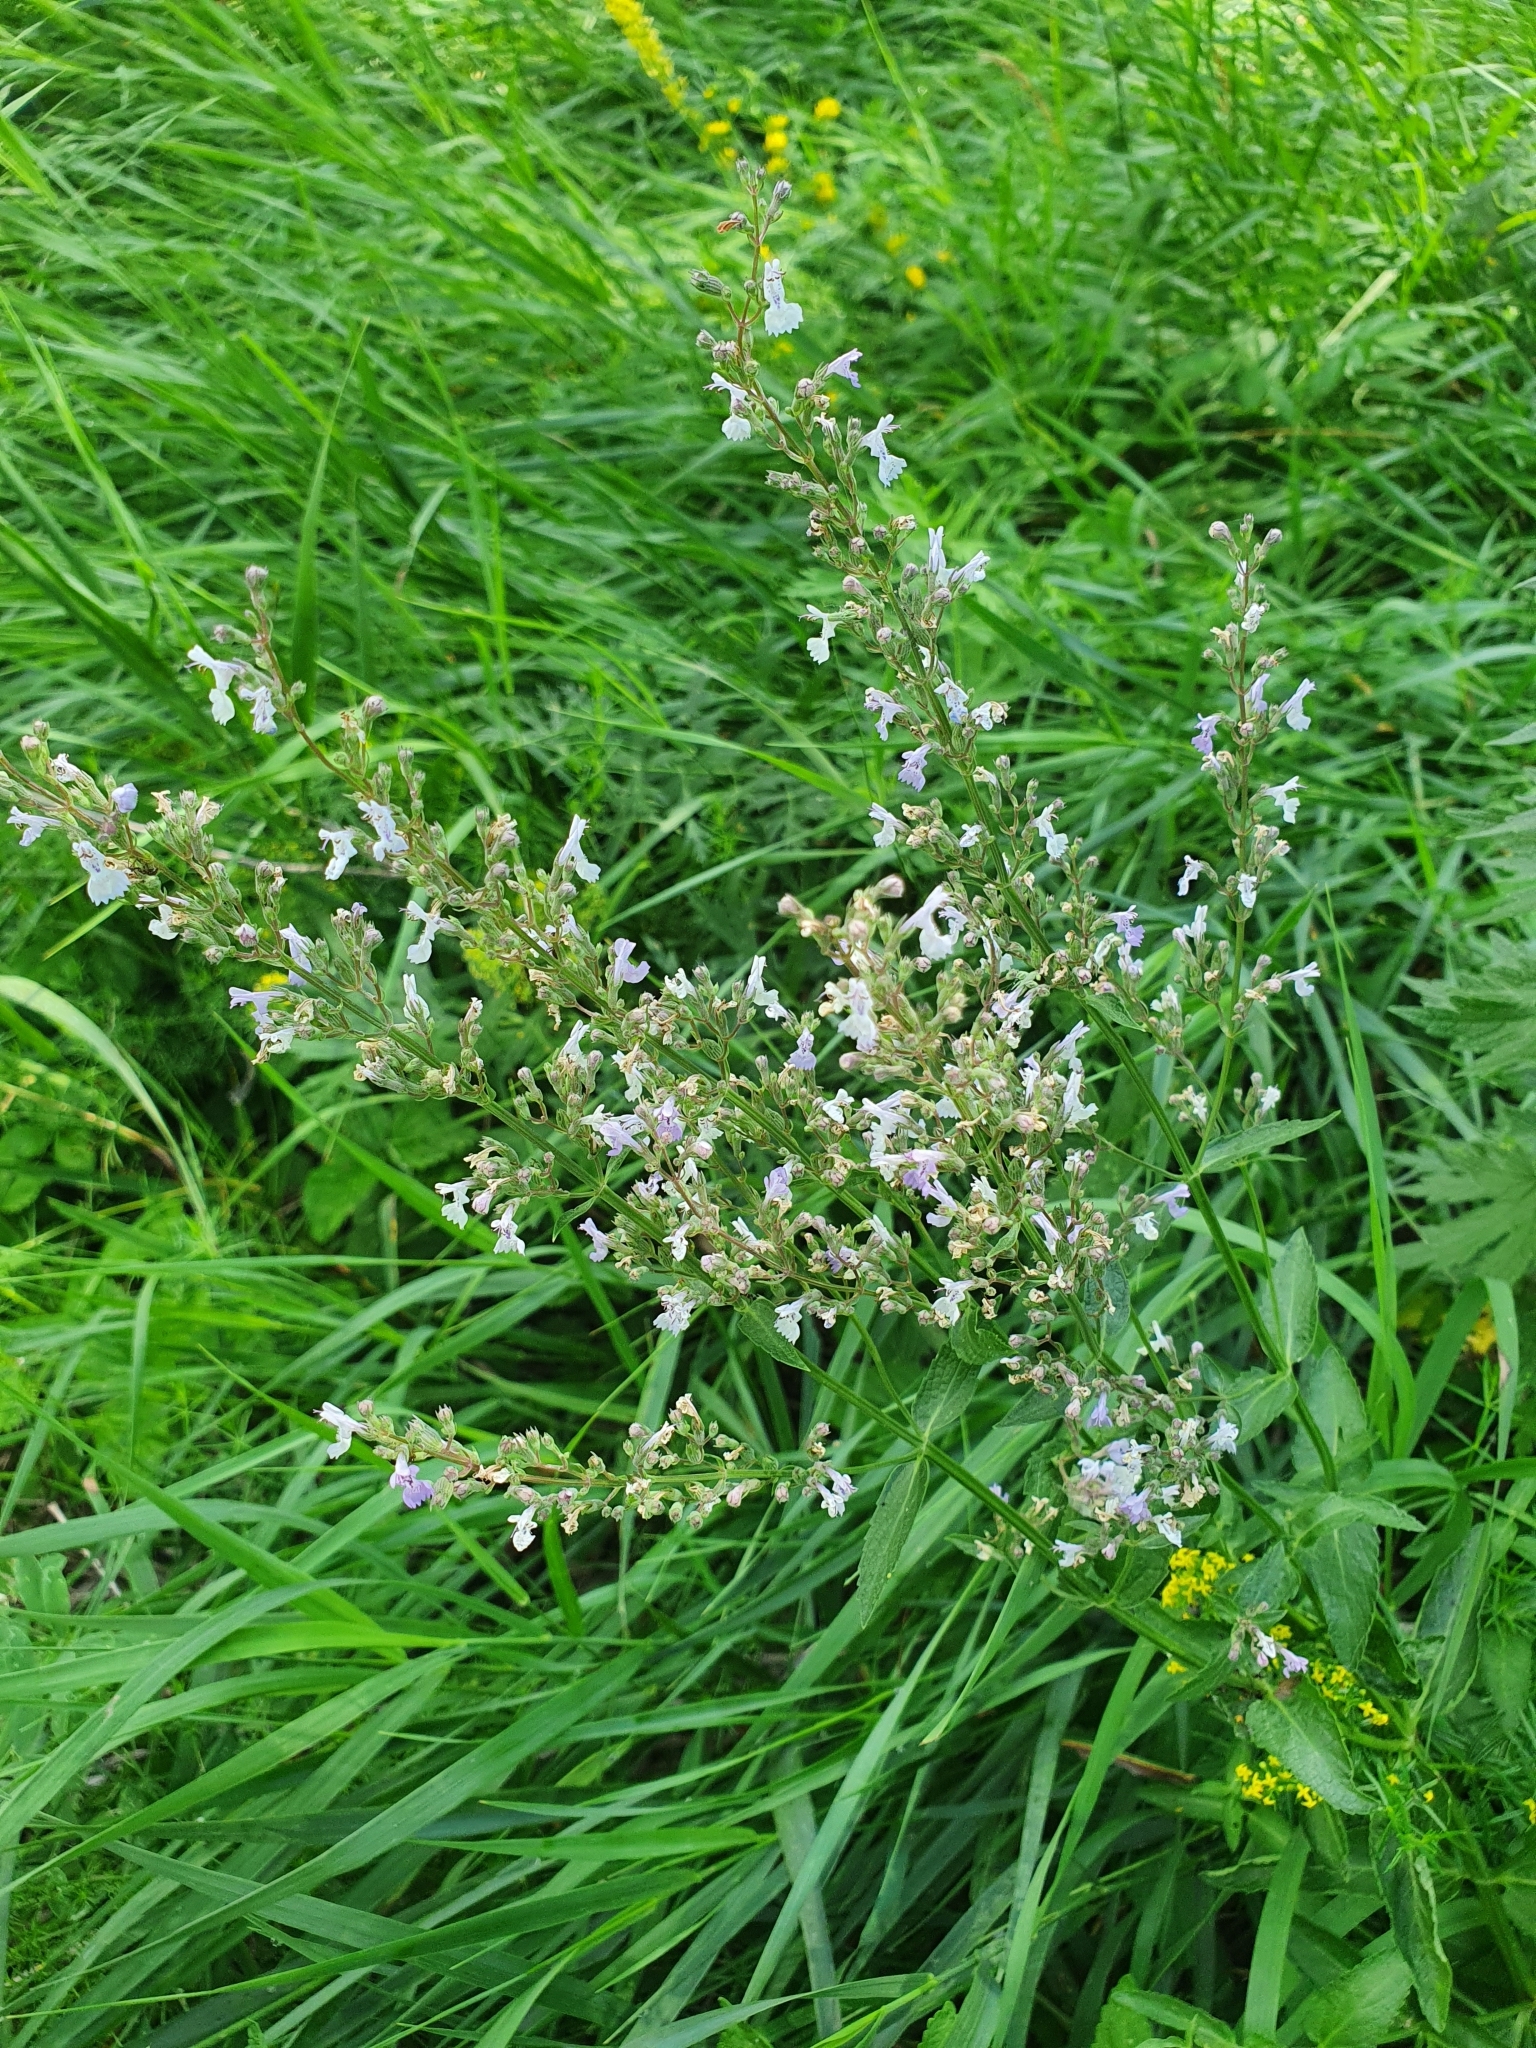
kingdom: Plantae
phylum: Tracheophyta
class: Magnoliopsida
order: Lamiales
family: Lamiaceae
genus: Nepeta
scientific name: Nepeta nuda
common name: Hairless catmint
